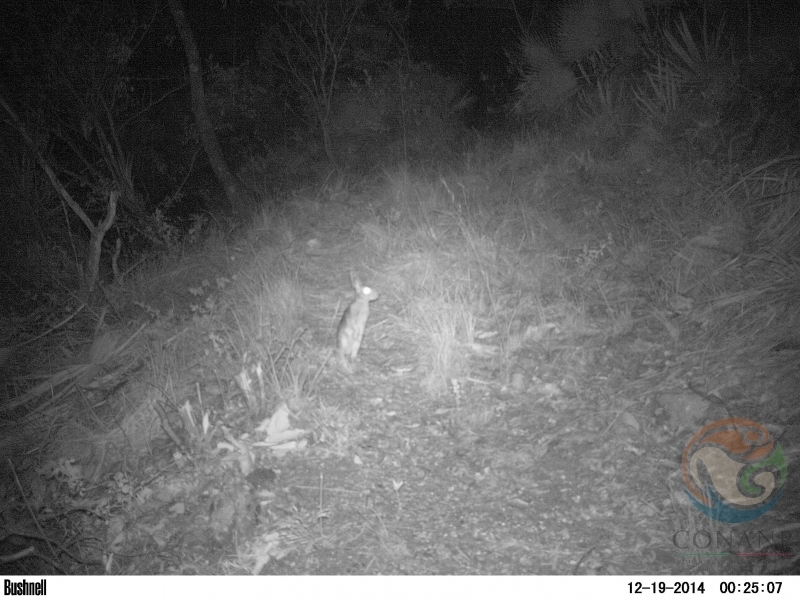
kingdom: Animalia
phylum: Chordata
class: Mammalia
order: Lagomorpha
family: Leporidae
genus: Sylvilagus
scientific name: Sylvilagus floridanus
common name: Eastern cottontail
